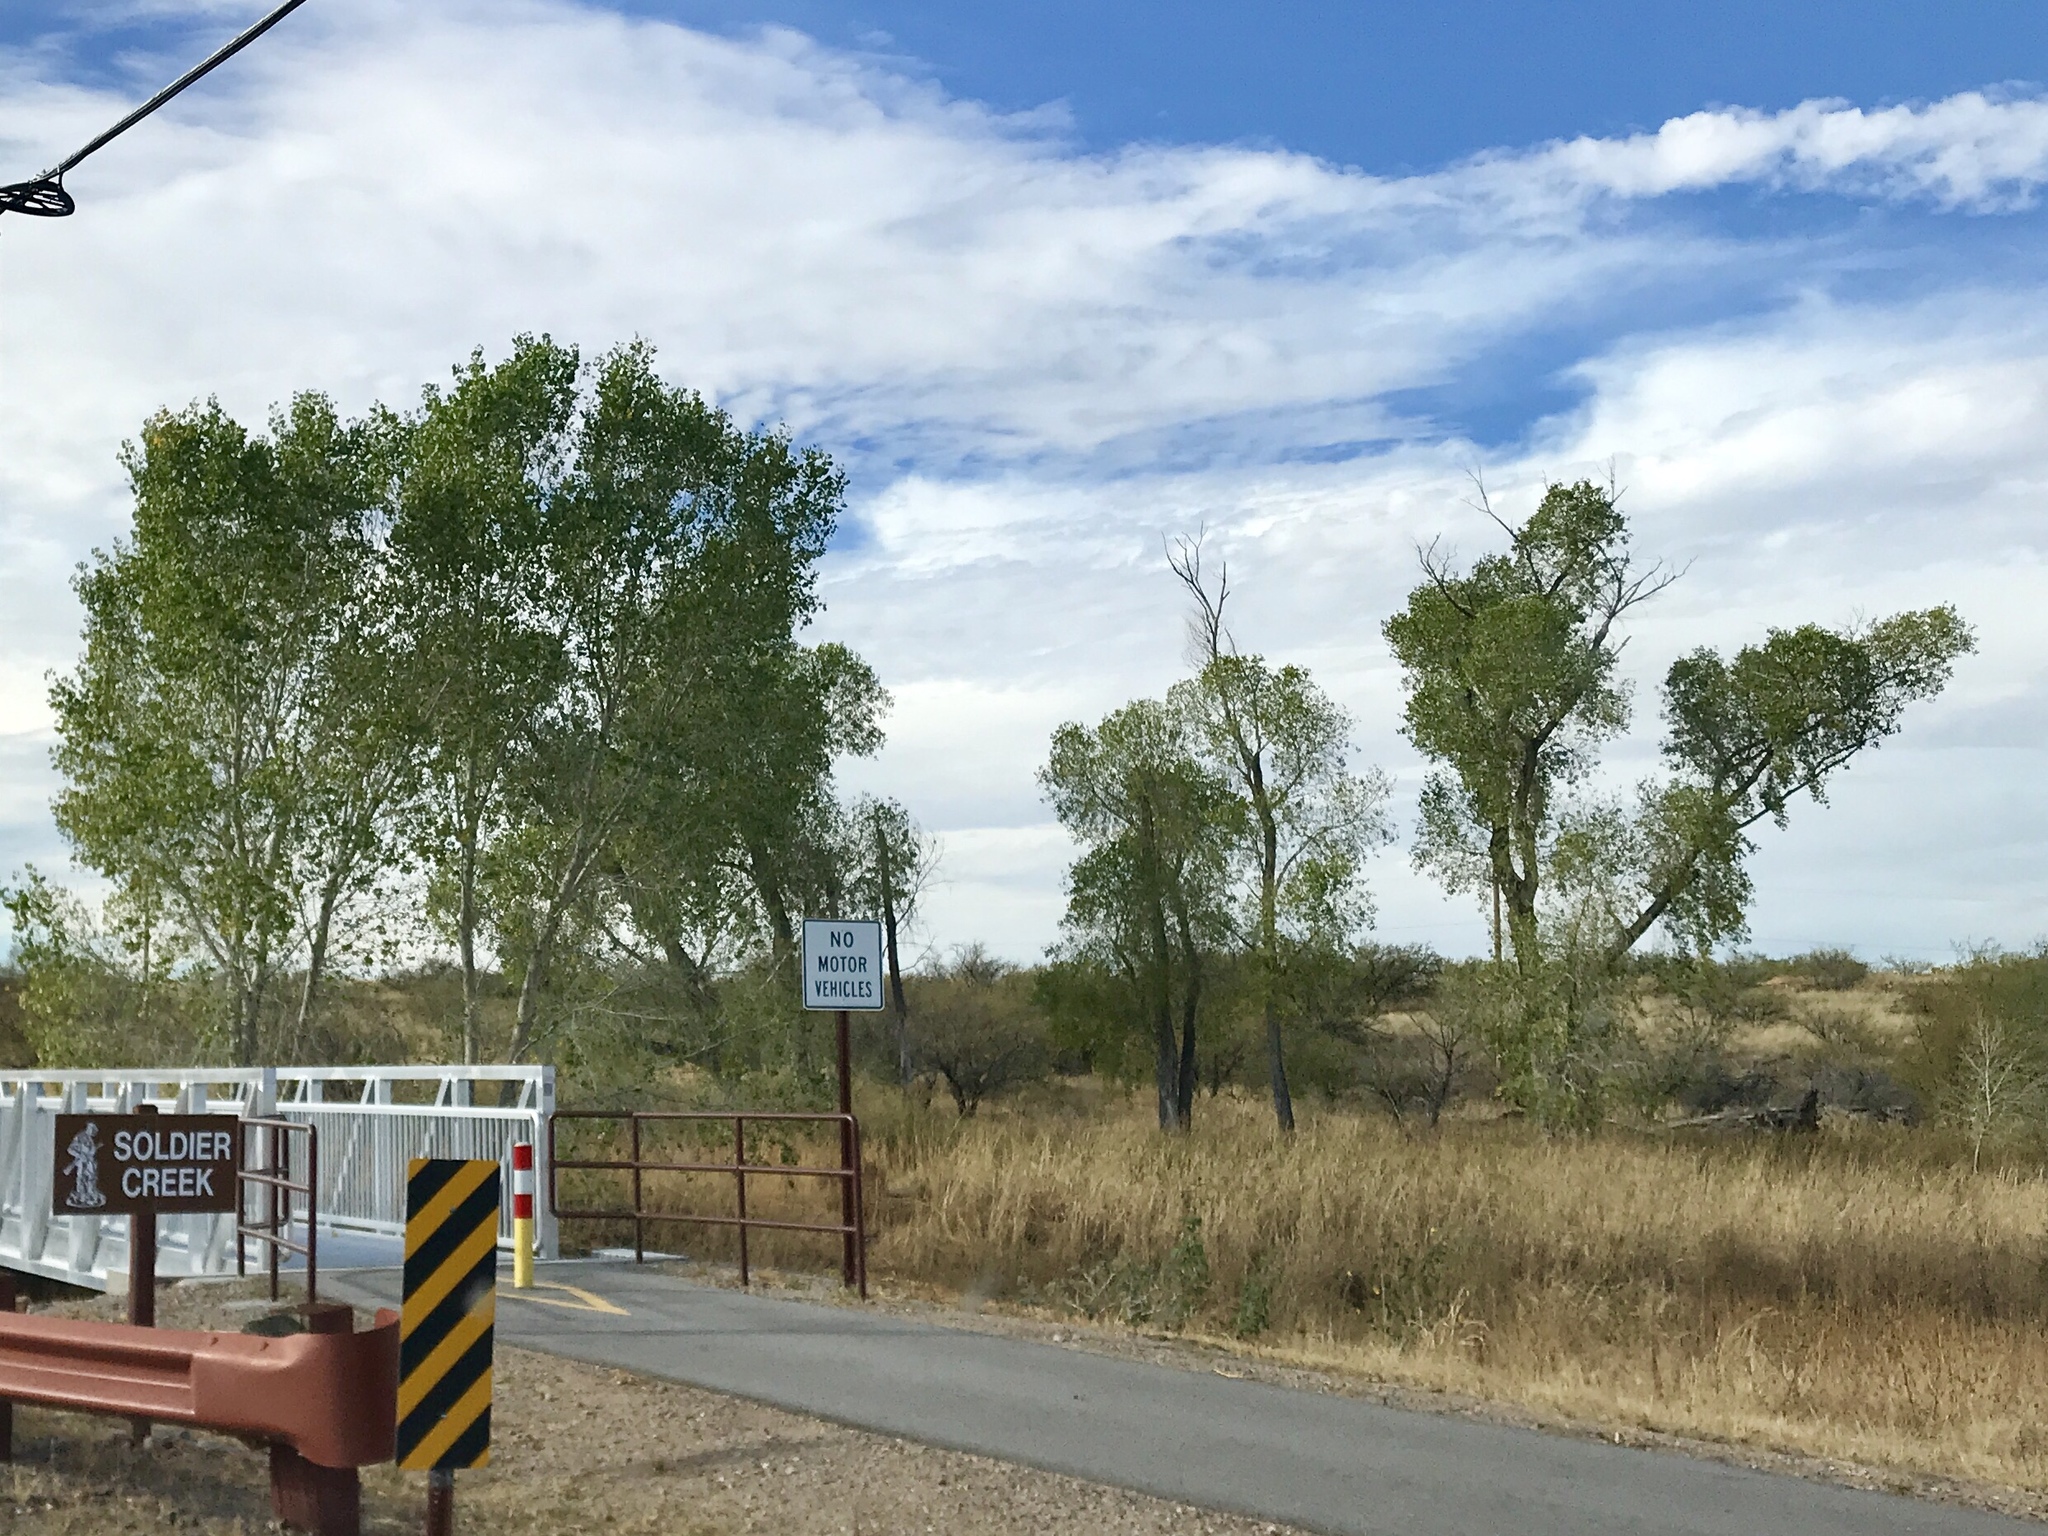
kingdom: Plantae
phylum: Tracheophyta
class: Magnoliopsida
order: Malpighiales
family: Salicaceae
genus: Populus
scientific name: Populus fremontii
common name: Fremont's cottonwood
